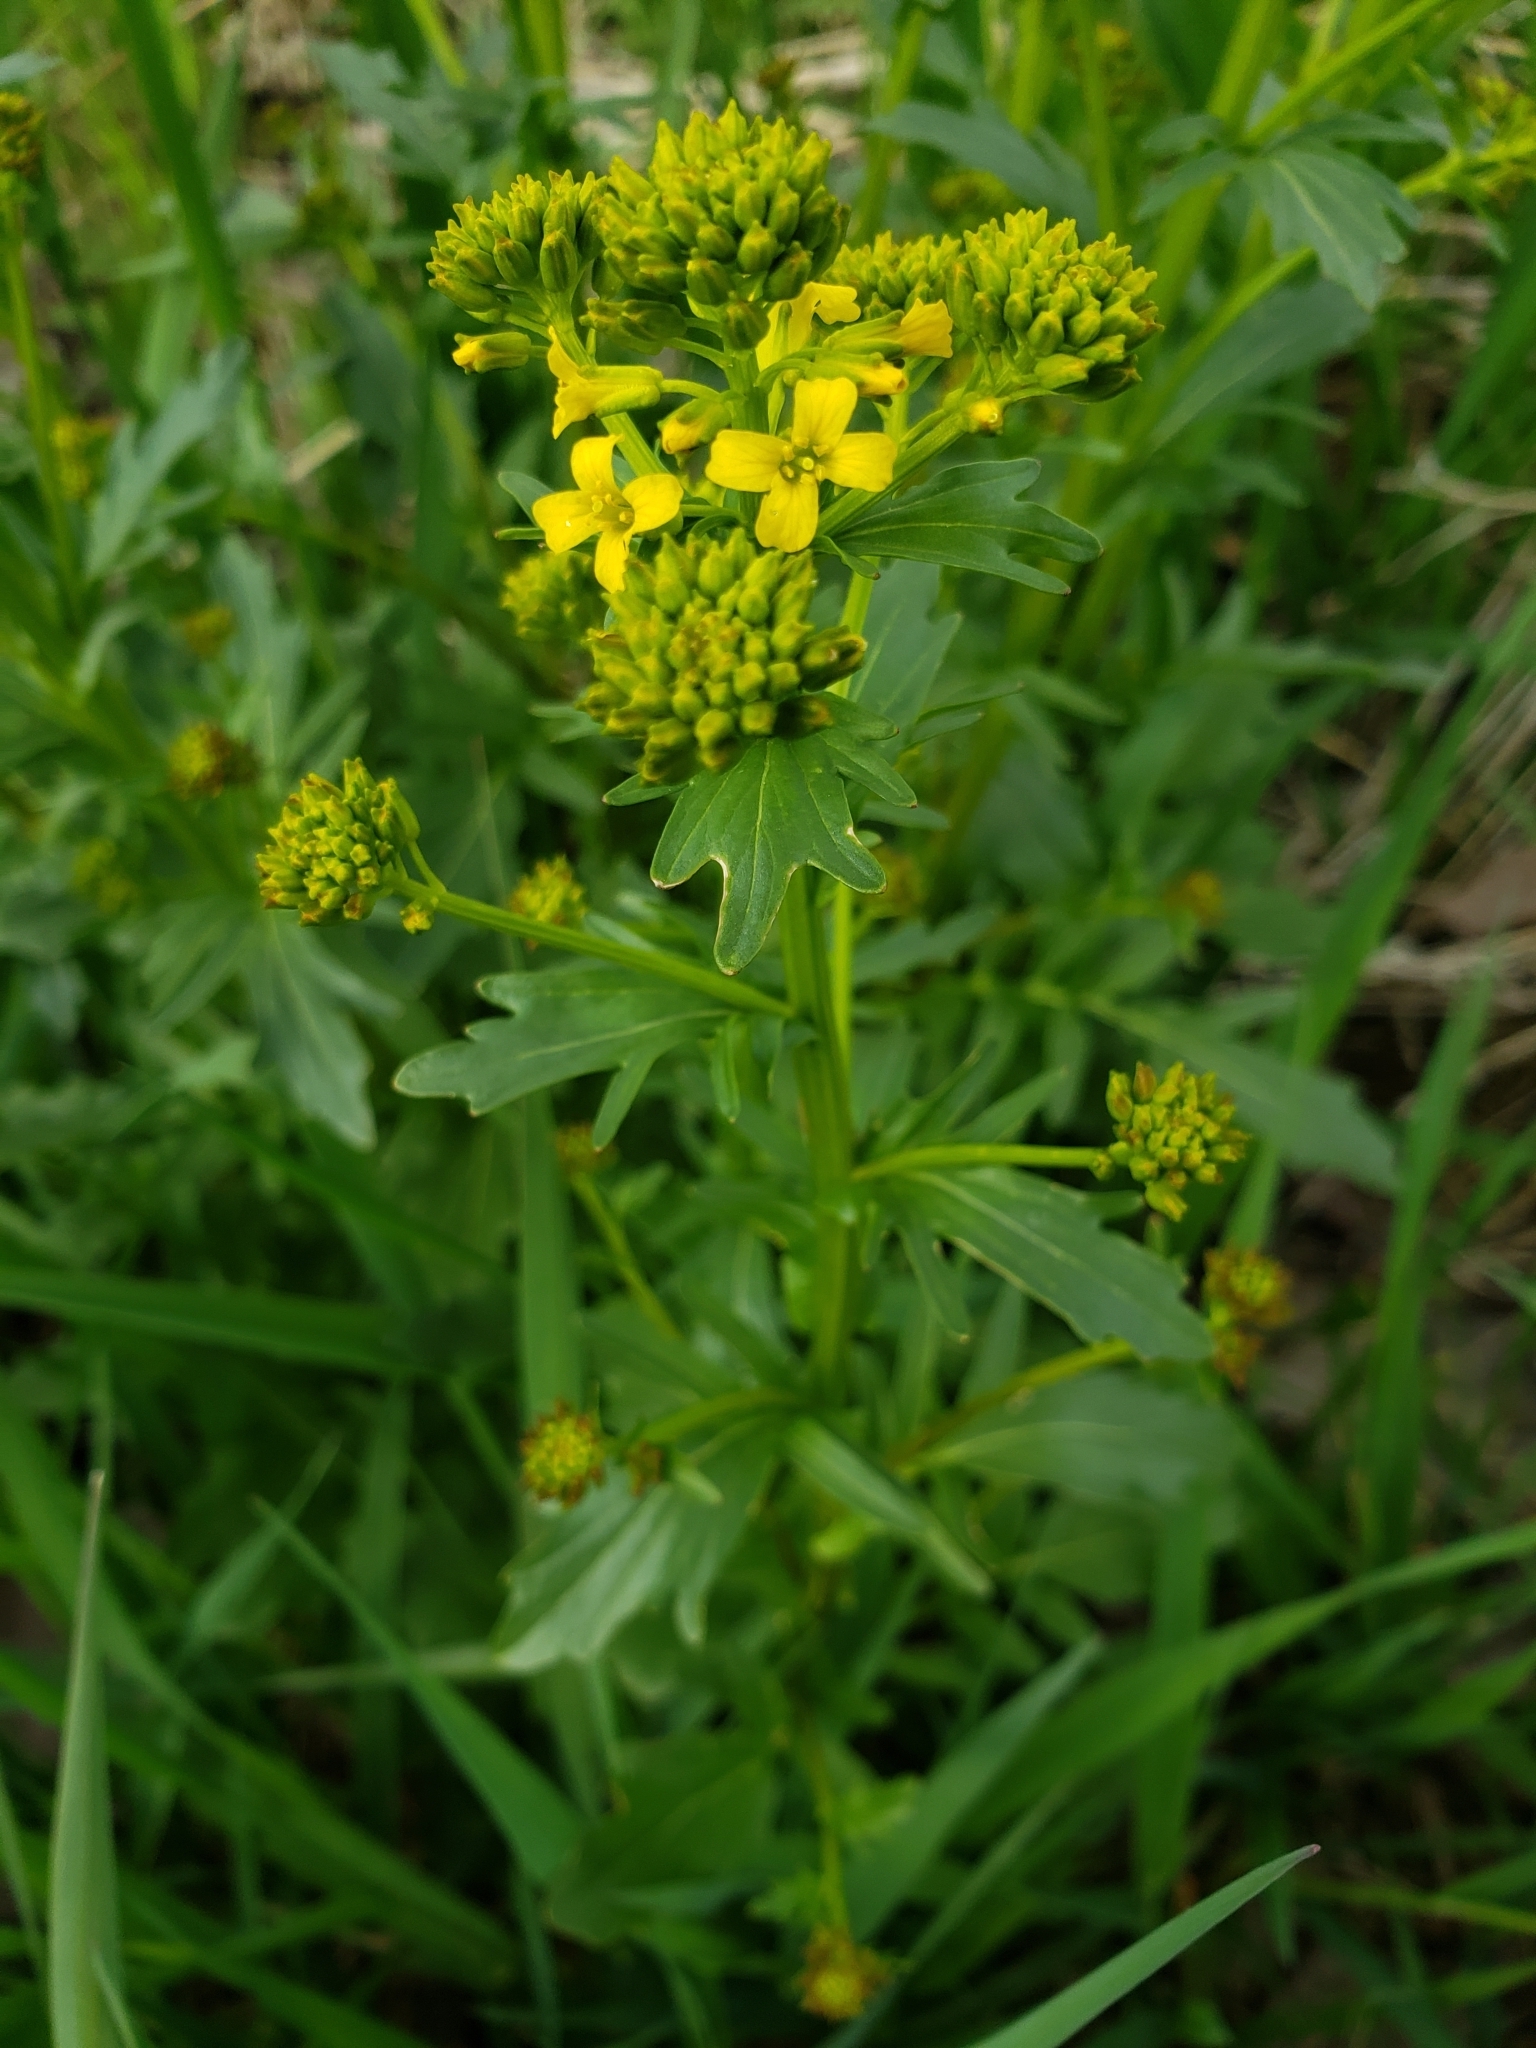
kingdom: Plantae
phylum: Tracheophyta
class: Magnoliopsida
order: Brassicales
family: Brassicaceae
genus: Barbarea
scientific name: Barbarea vulgaris
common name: Cressy-greens
